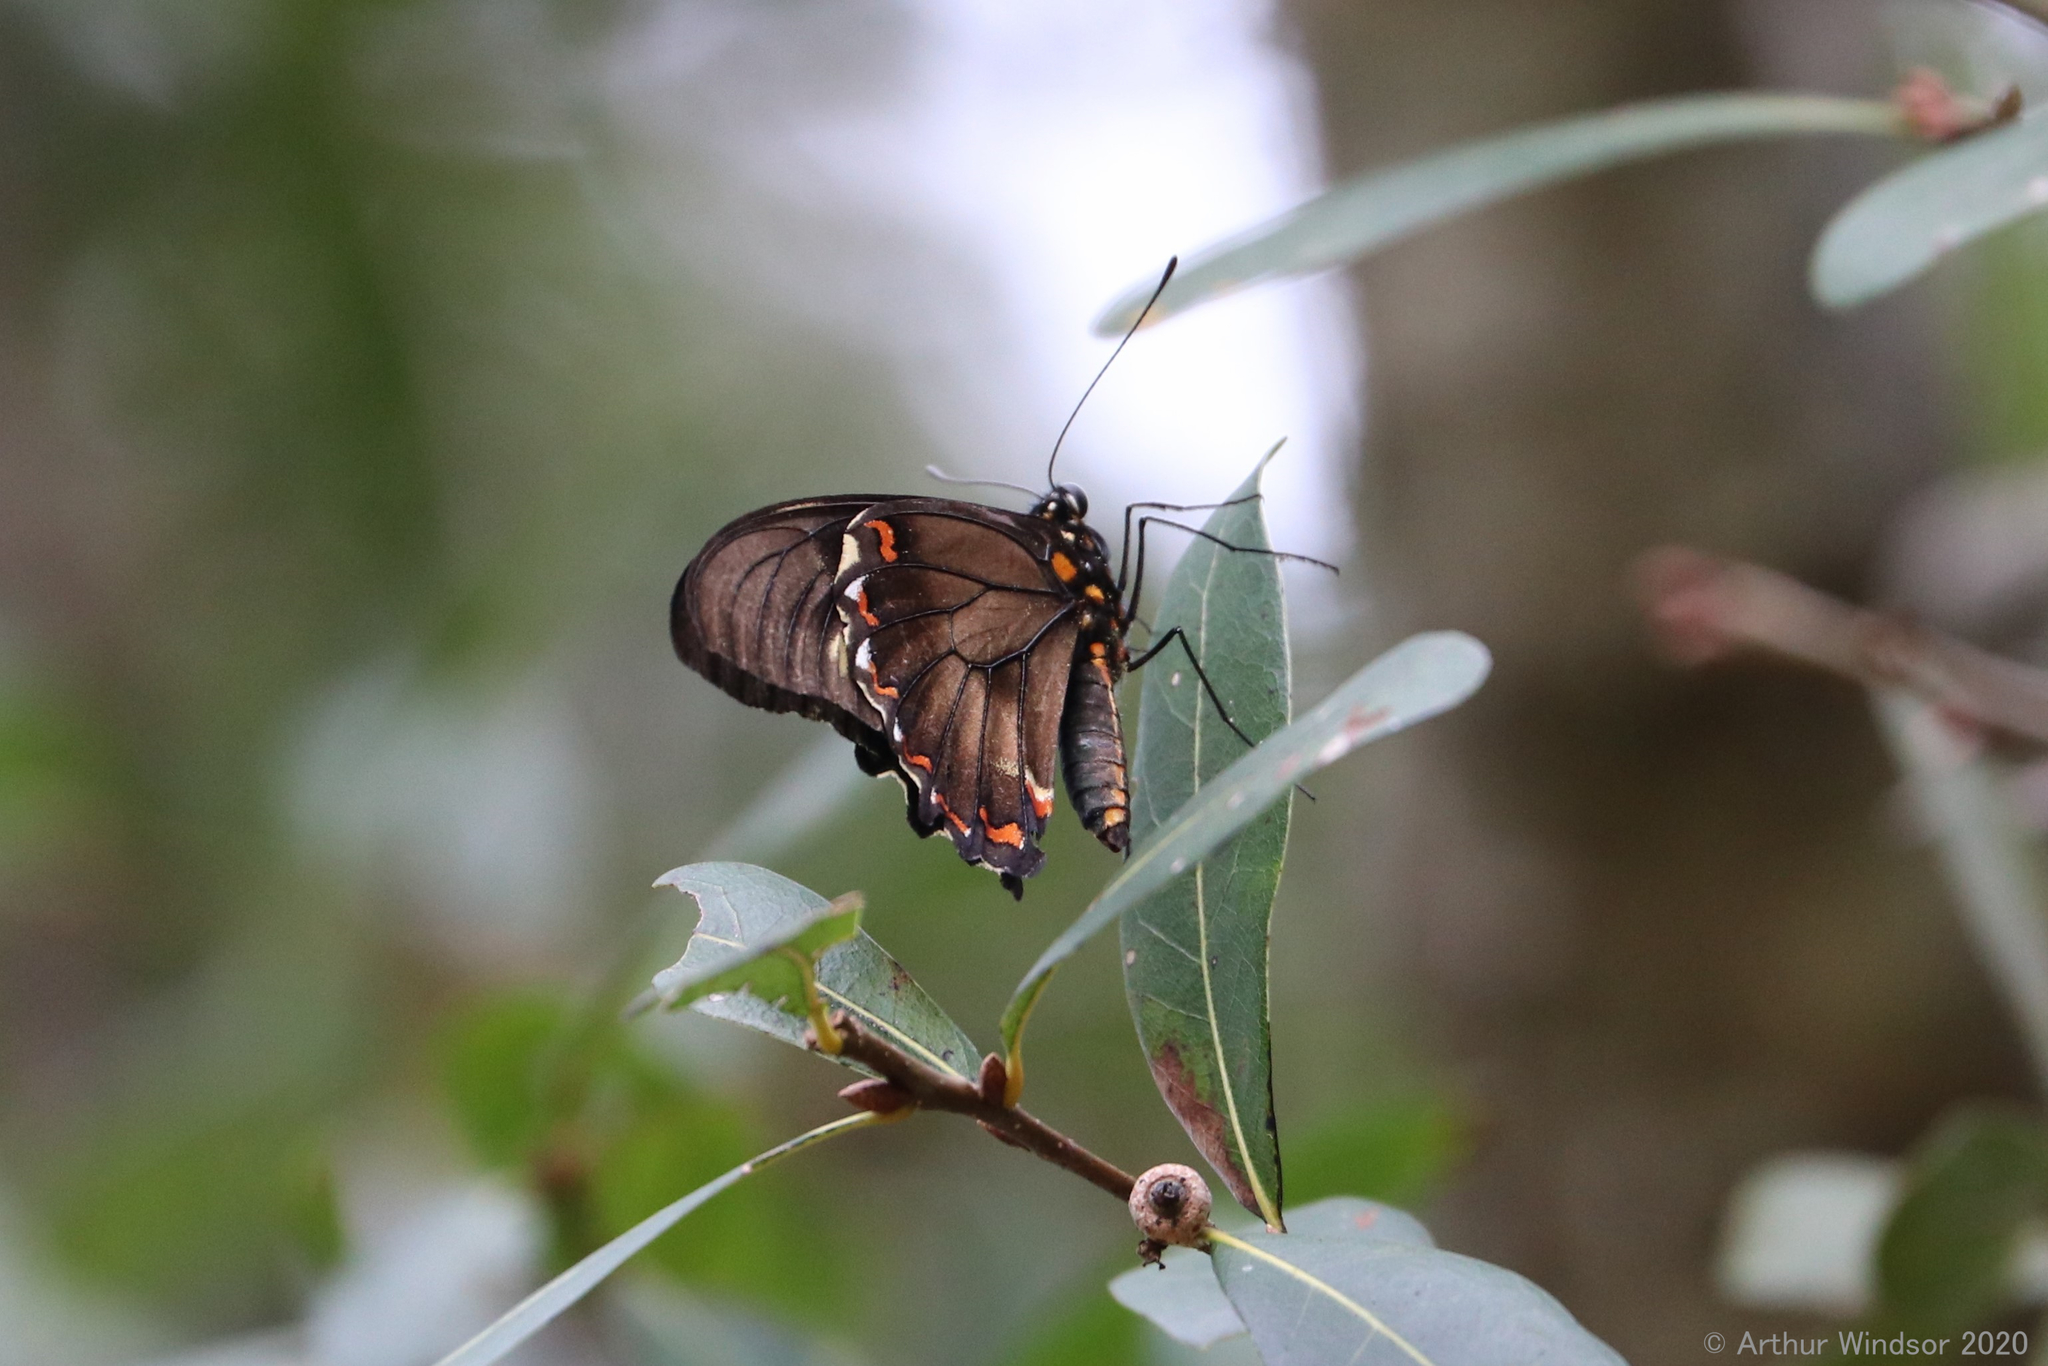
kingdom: Animalia
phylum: Arthropoda
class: Insecta
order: Lepidoptera
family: Papilionidae
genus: Battus
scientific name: Battus polydamas
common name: Polydamas swallowtail
